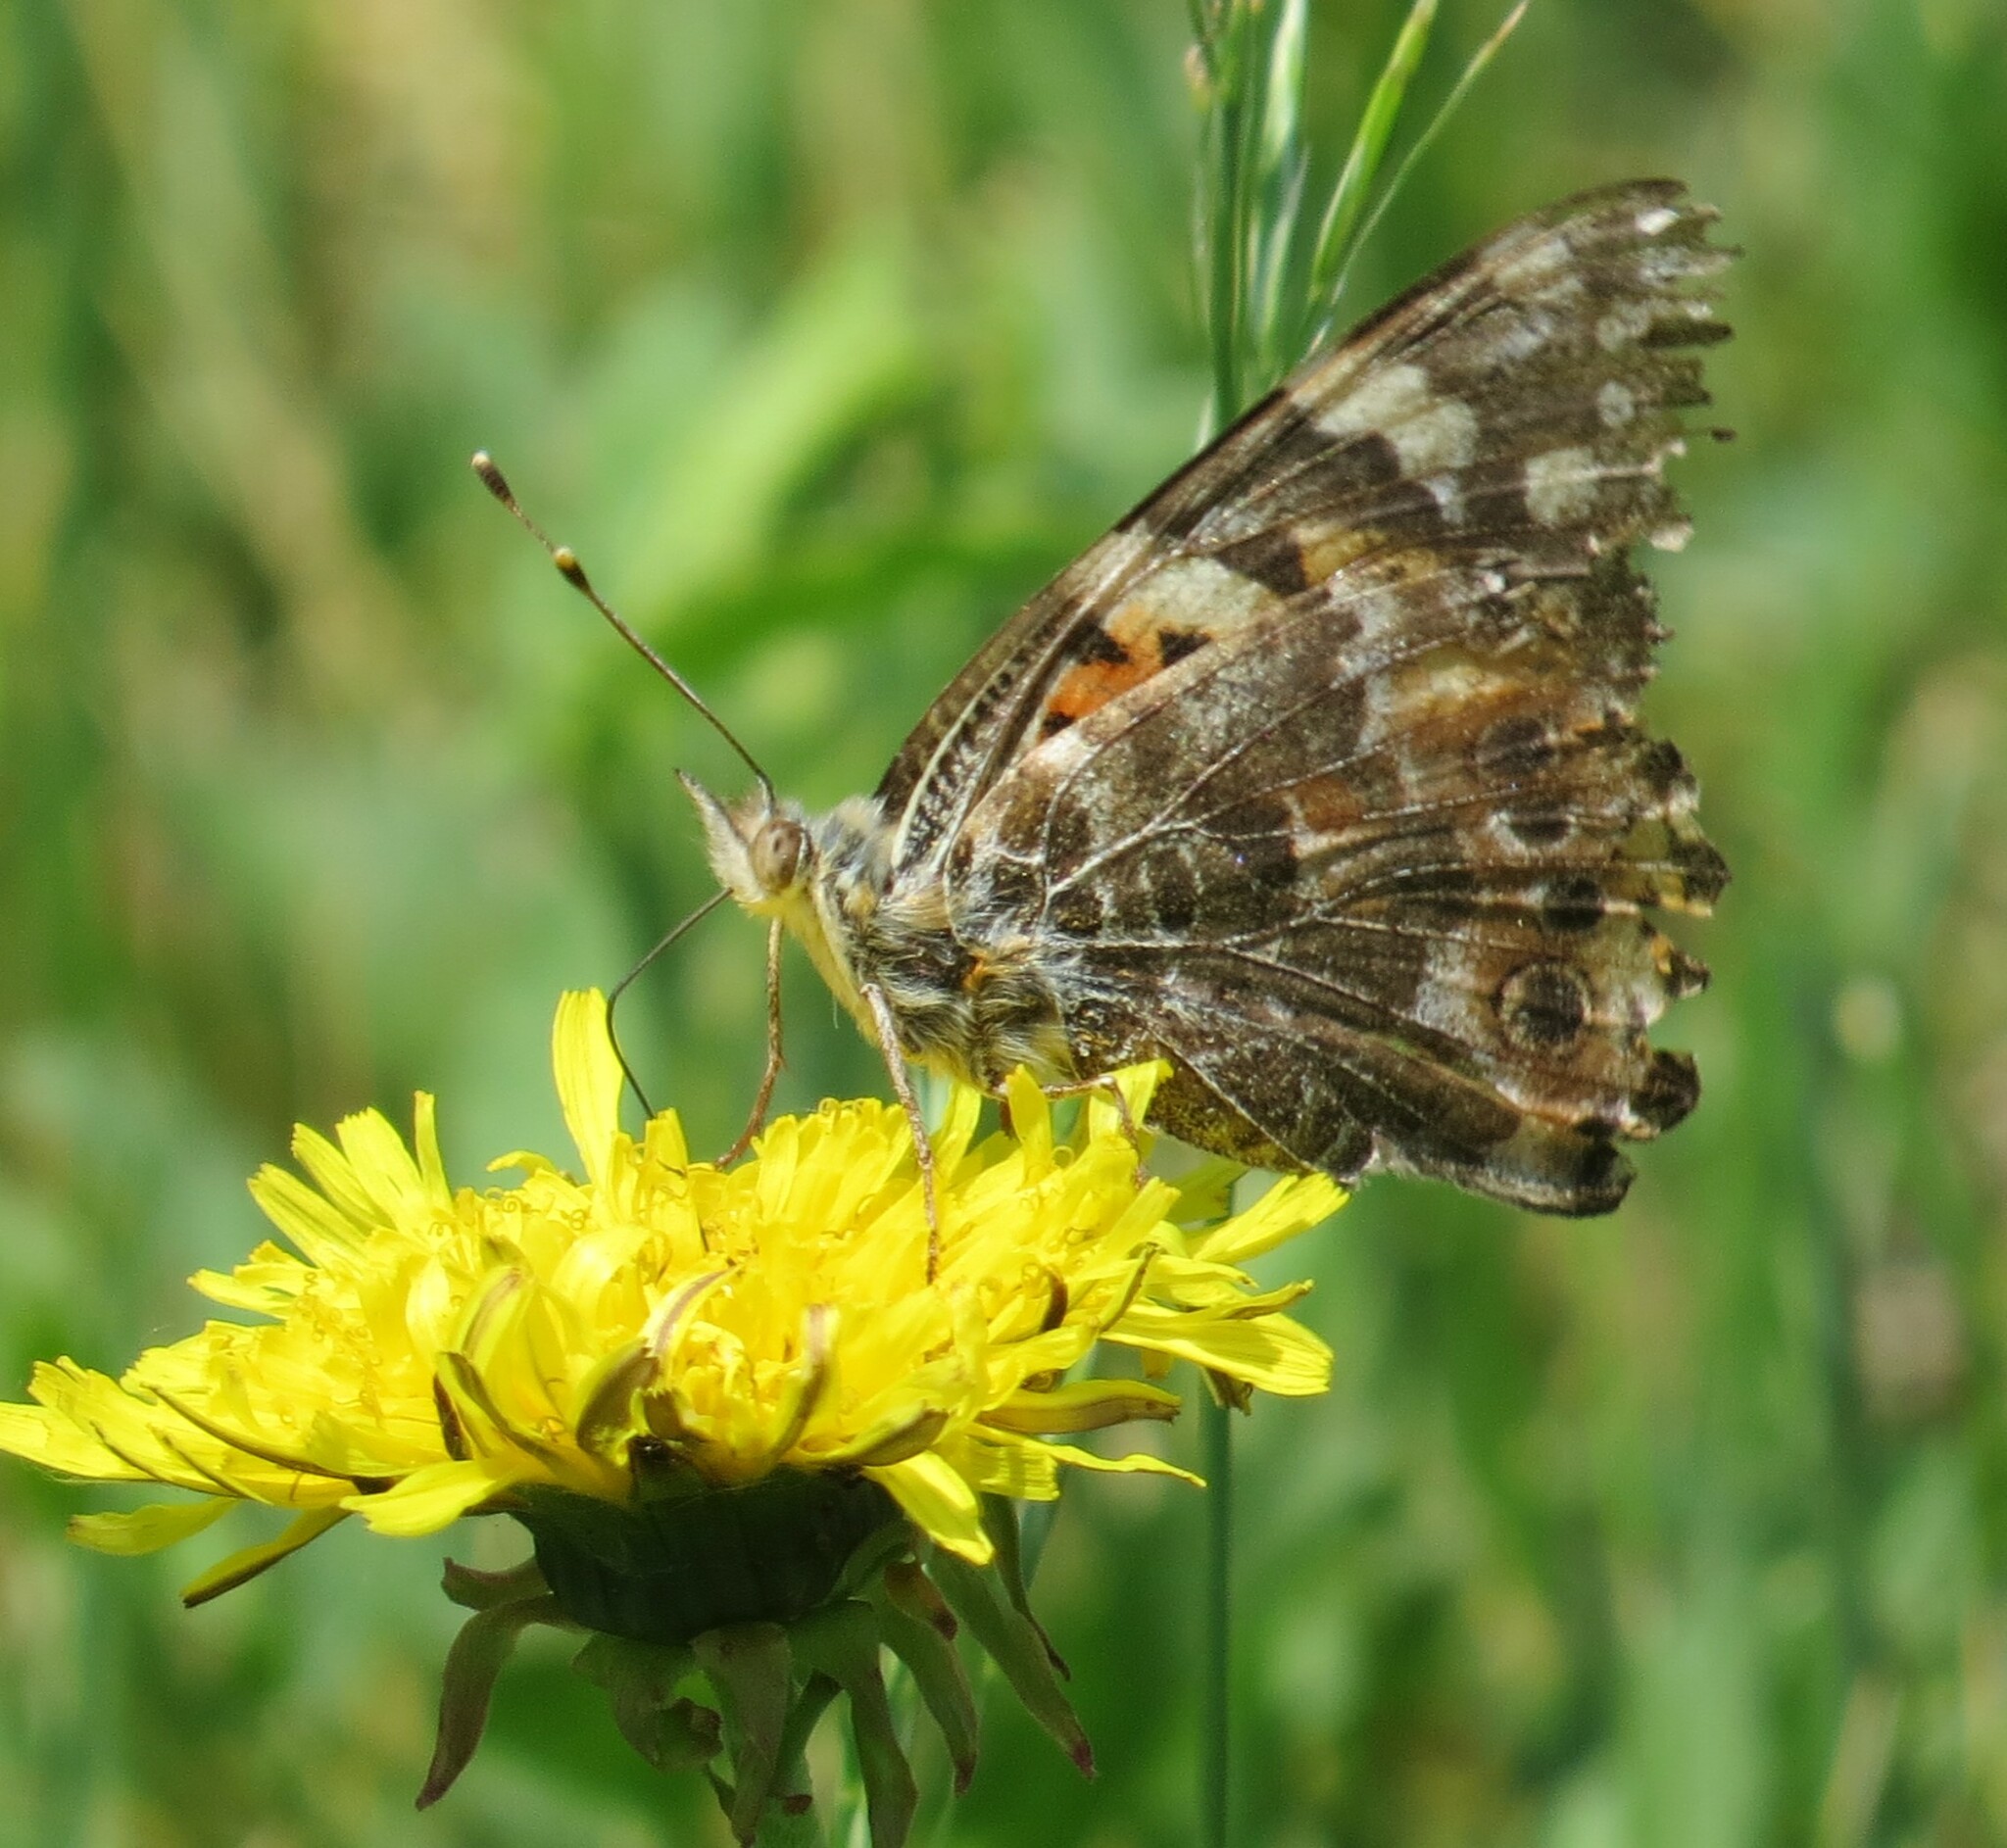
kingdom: Animalia
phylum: Arthropoda
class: Insecta
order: Lepidoptera
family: Nymphalidae
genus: Vanessa
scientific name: Vanessa cardui
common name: Painted lady
